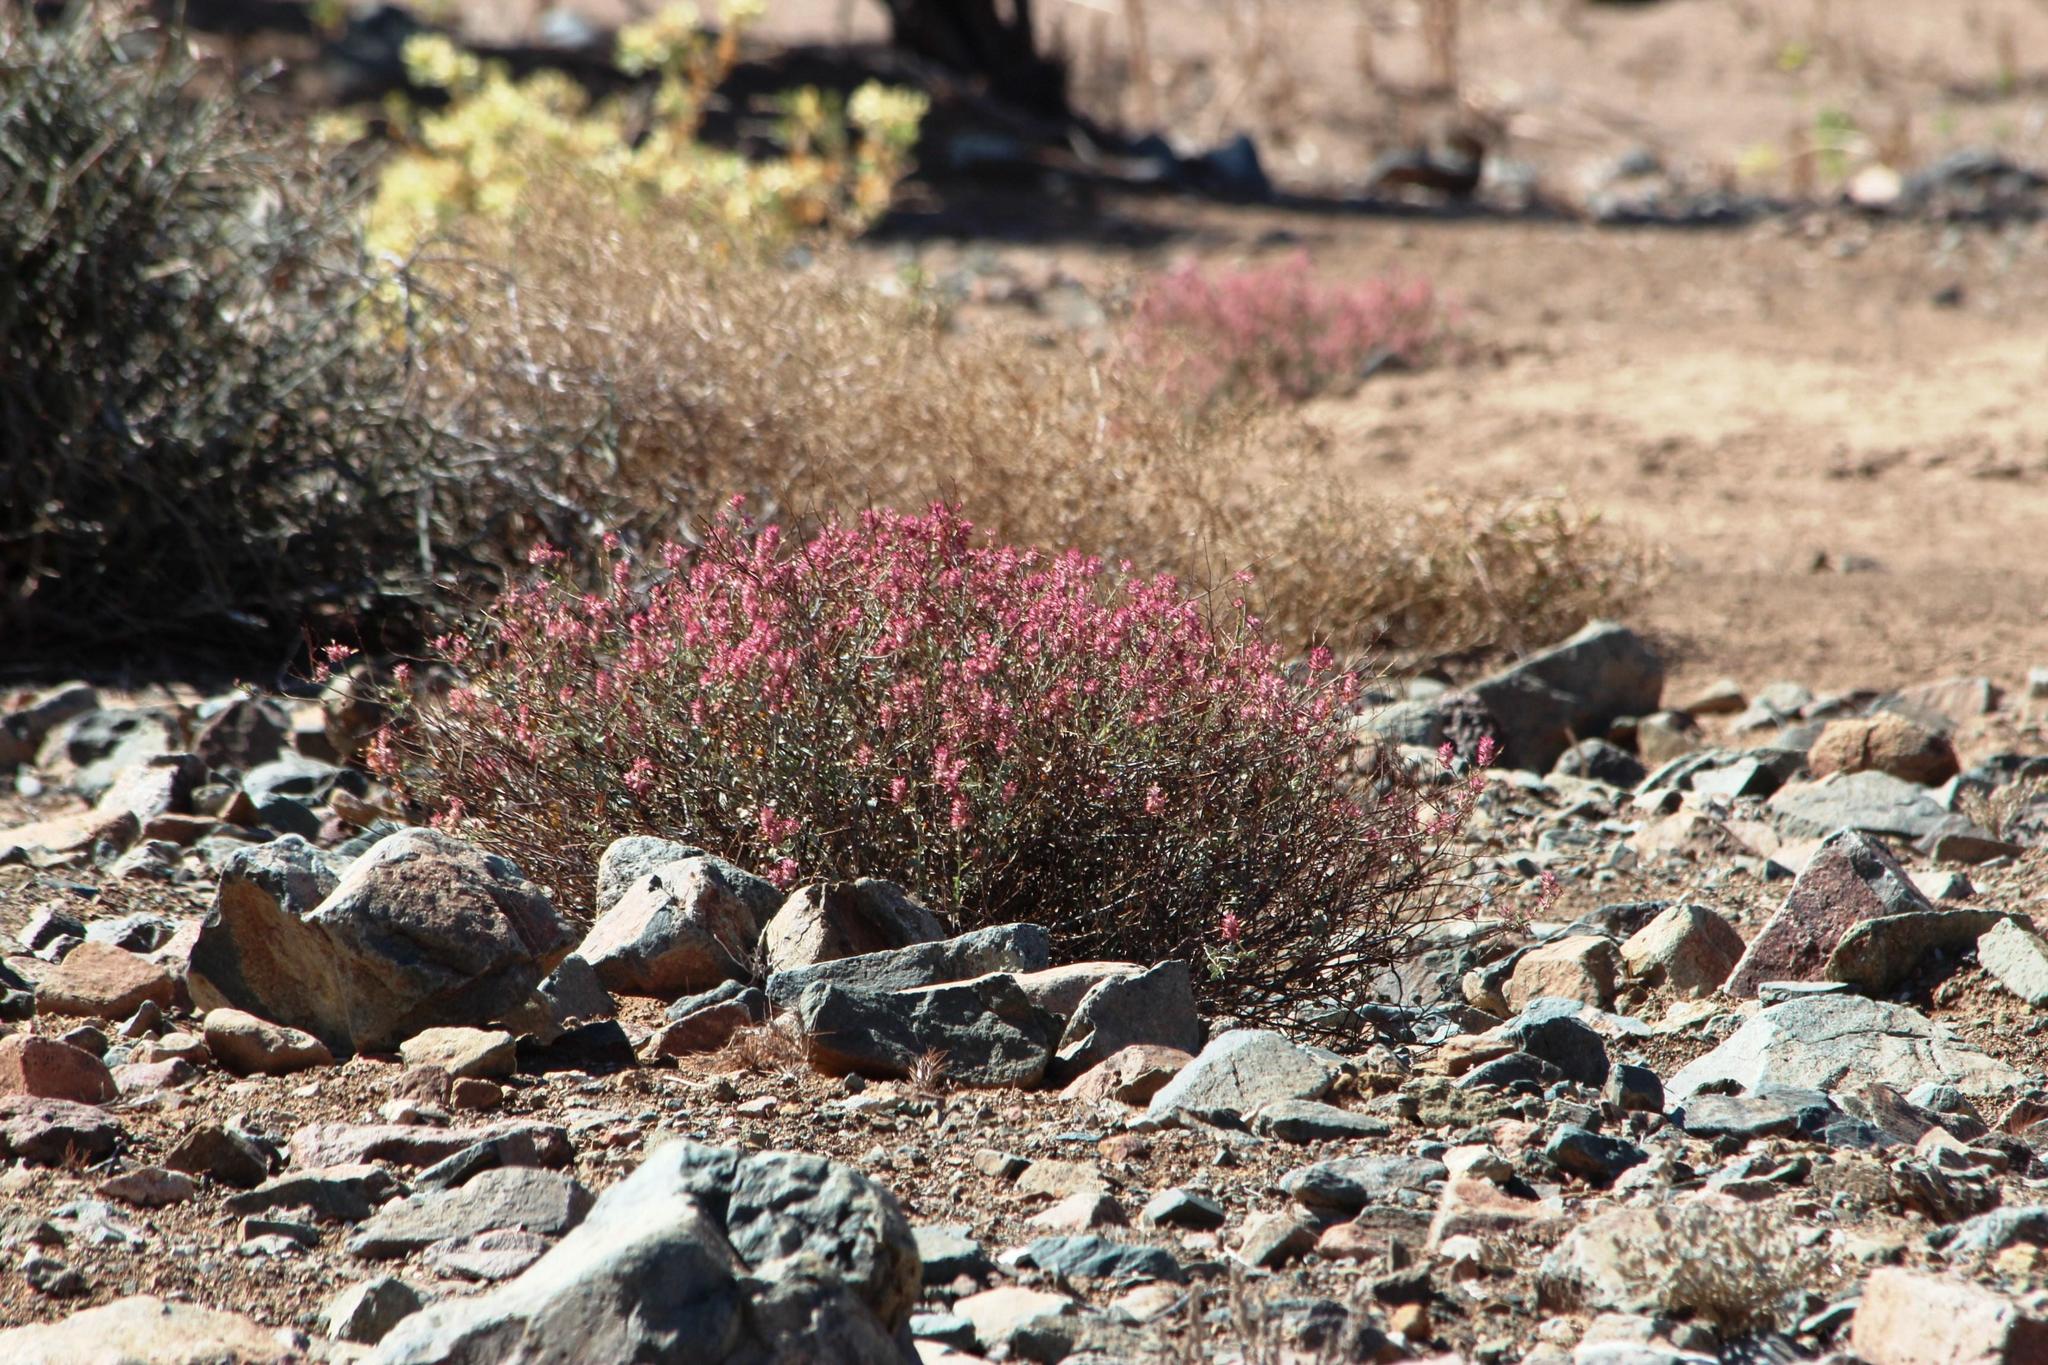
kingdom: Plantae
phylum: Tracheophyta
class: Magnoliopsida
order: Caryophyllales
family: Plumbaginaceae
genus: Dyerophytum
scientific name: Dyerophytum africanum
